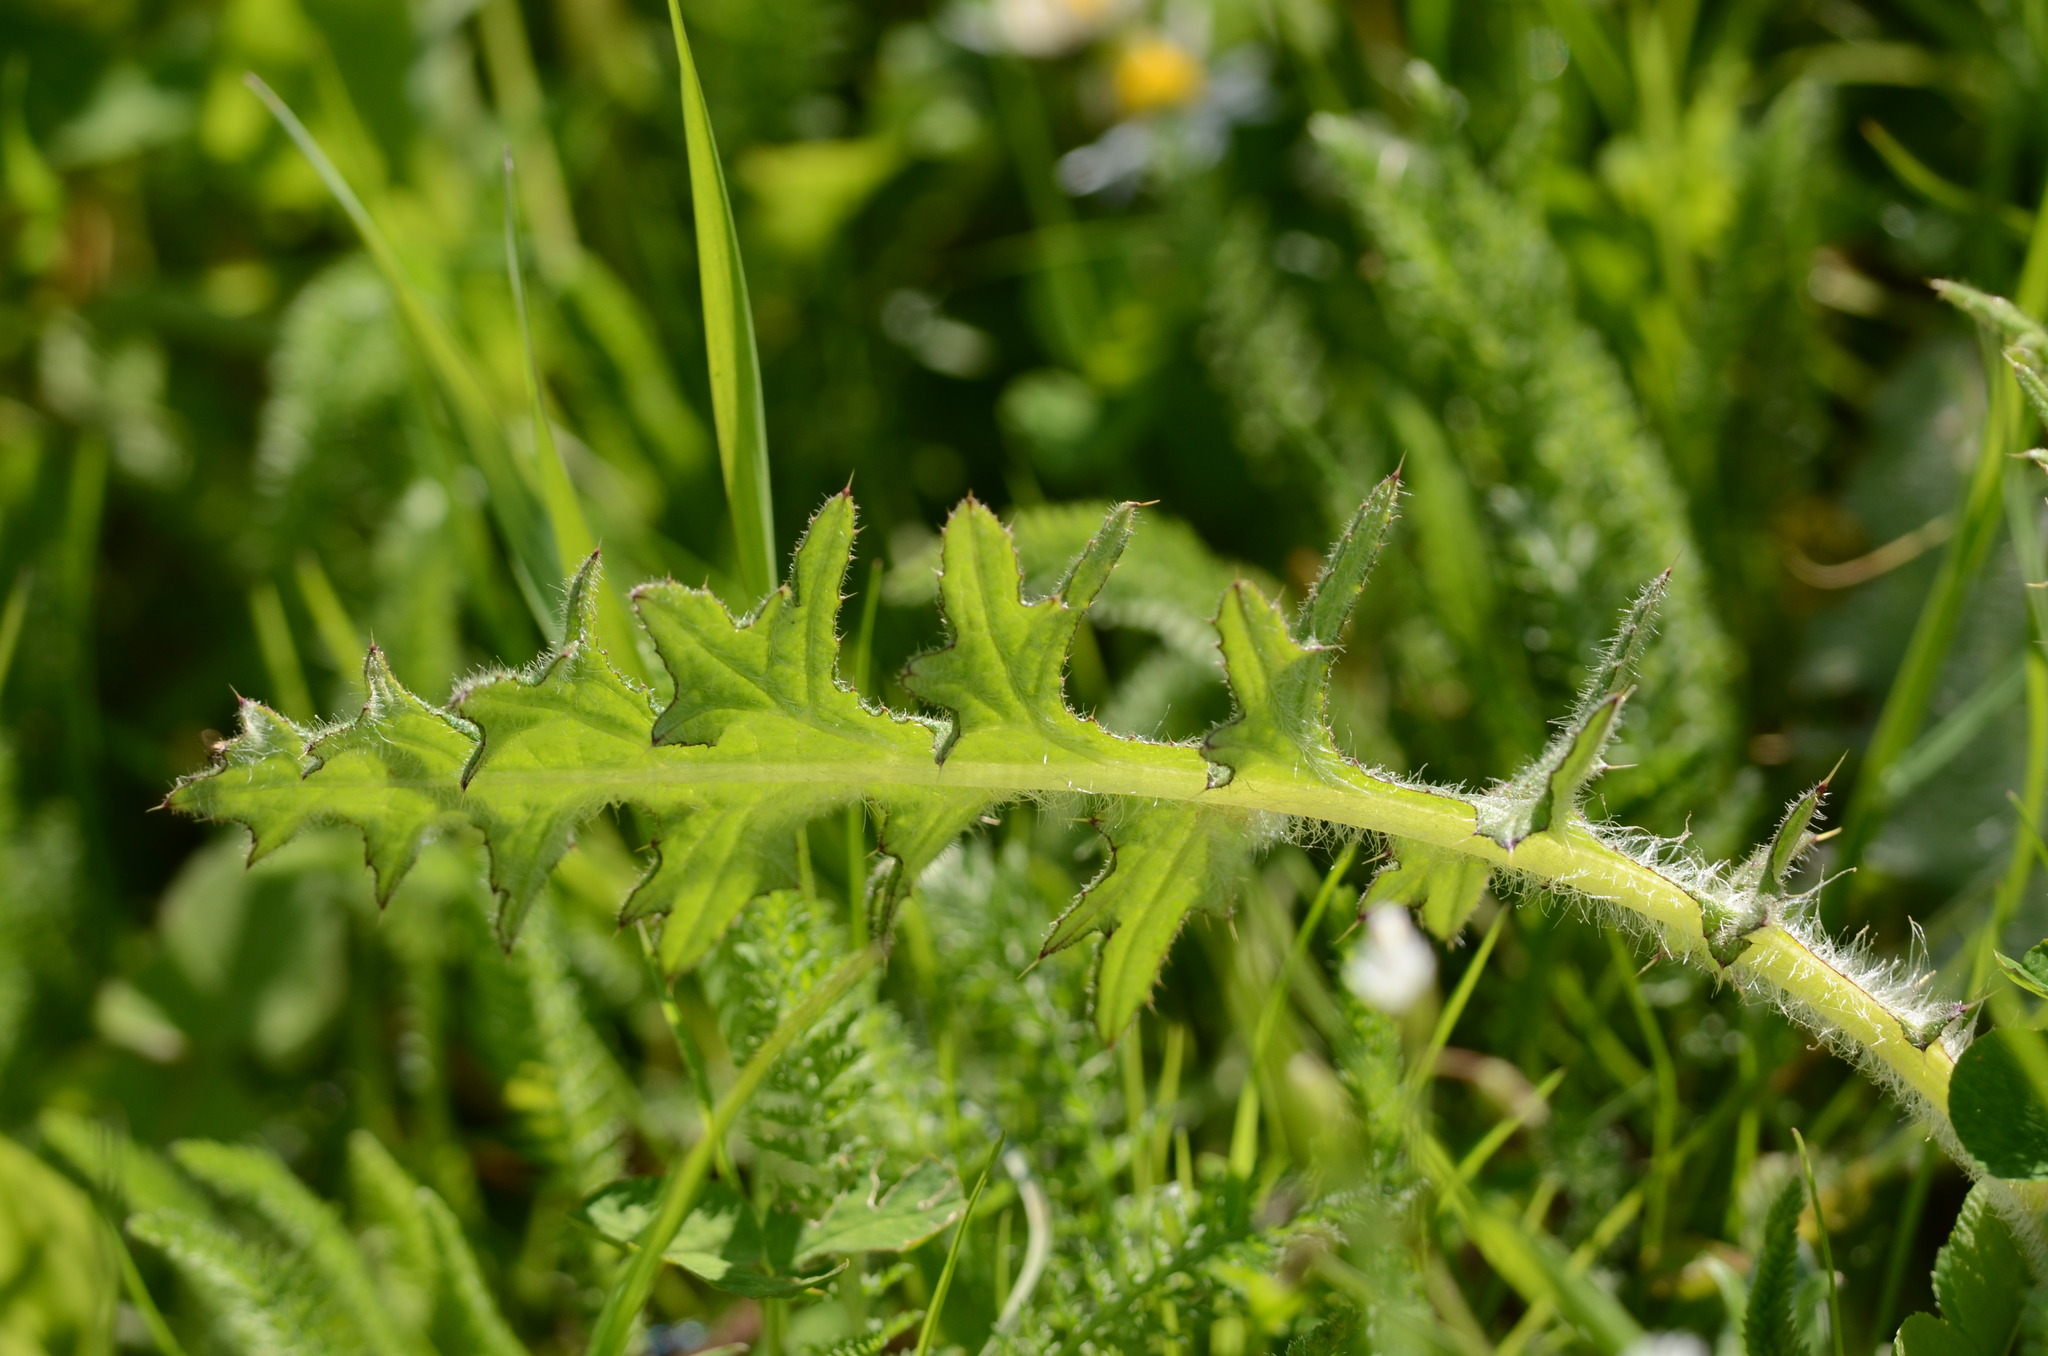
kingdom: Plantae
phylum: Tracheophyta
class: Magnoliopsida
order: Asterales
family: Asteraceae
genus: Cirsium
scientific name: Cirsium vulgare
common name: Bull thistle
